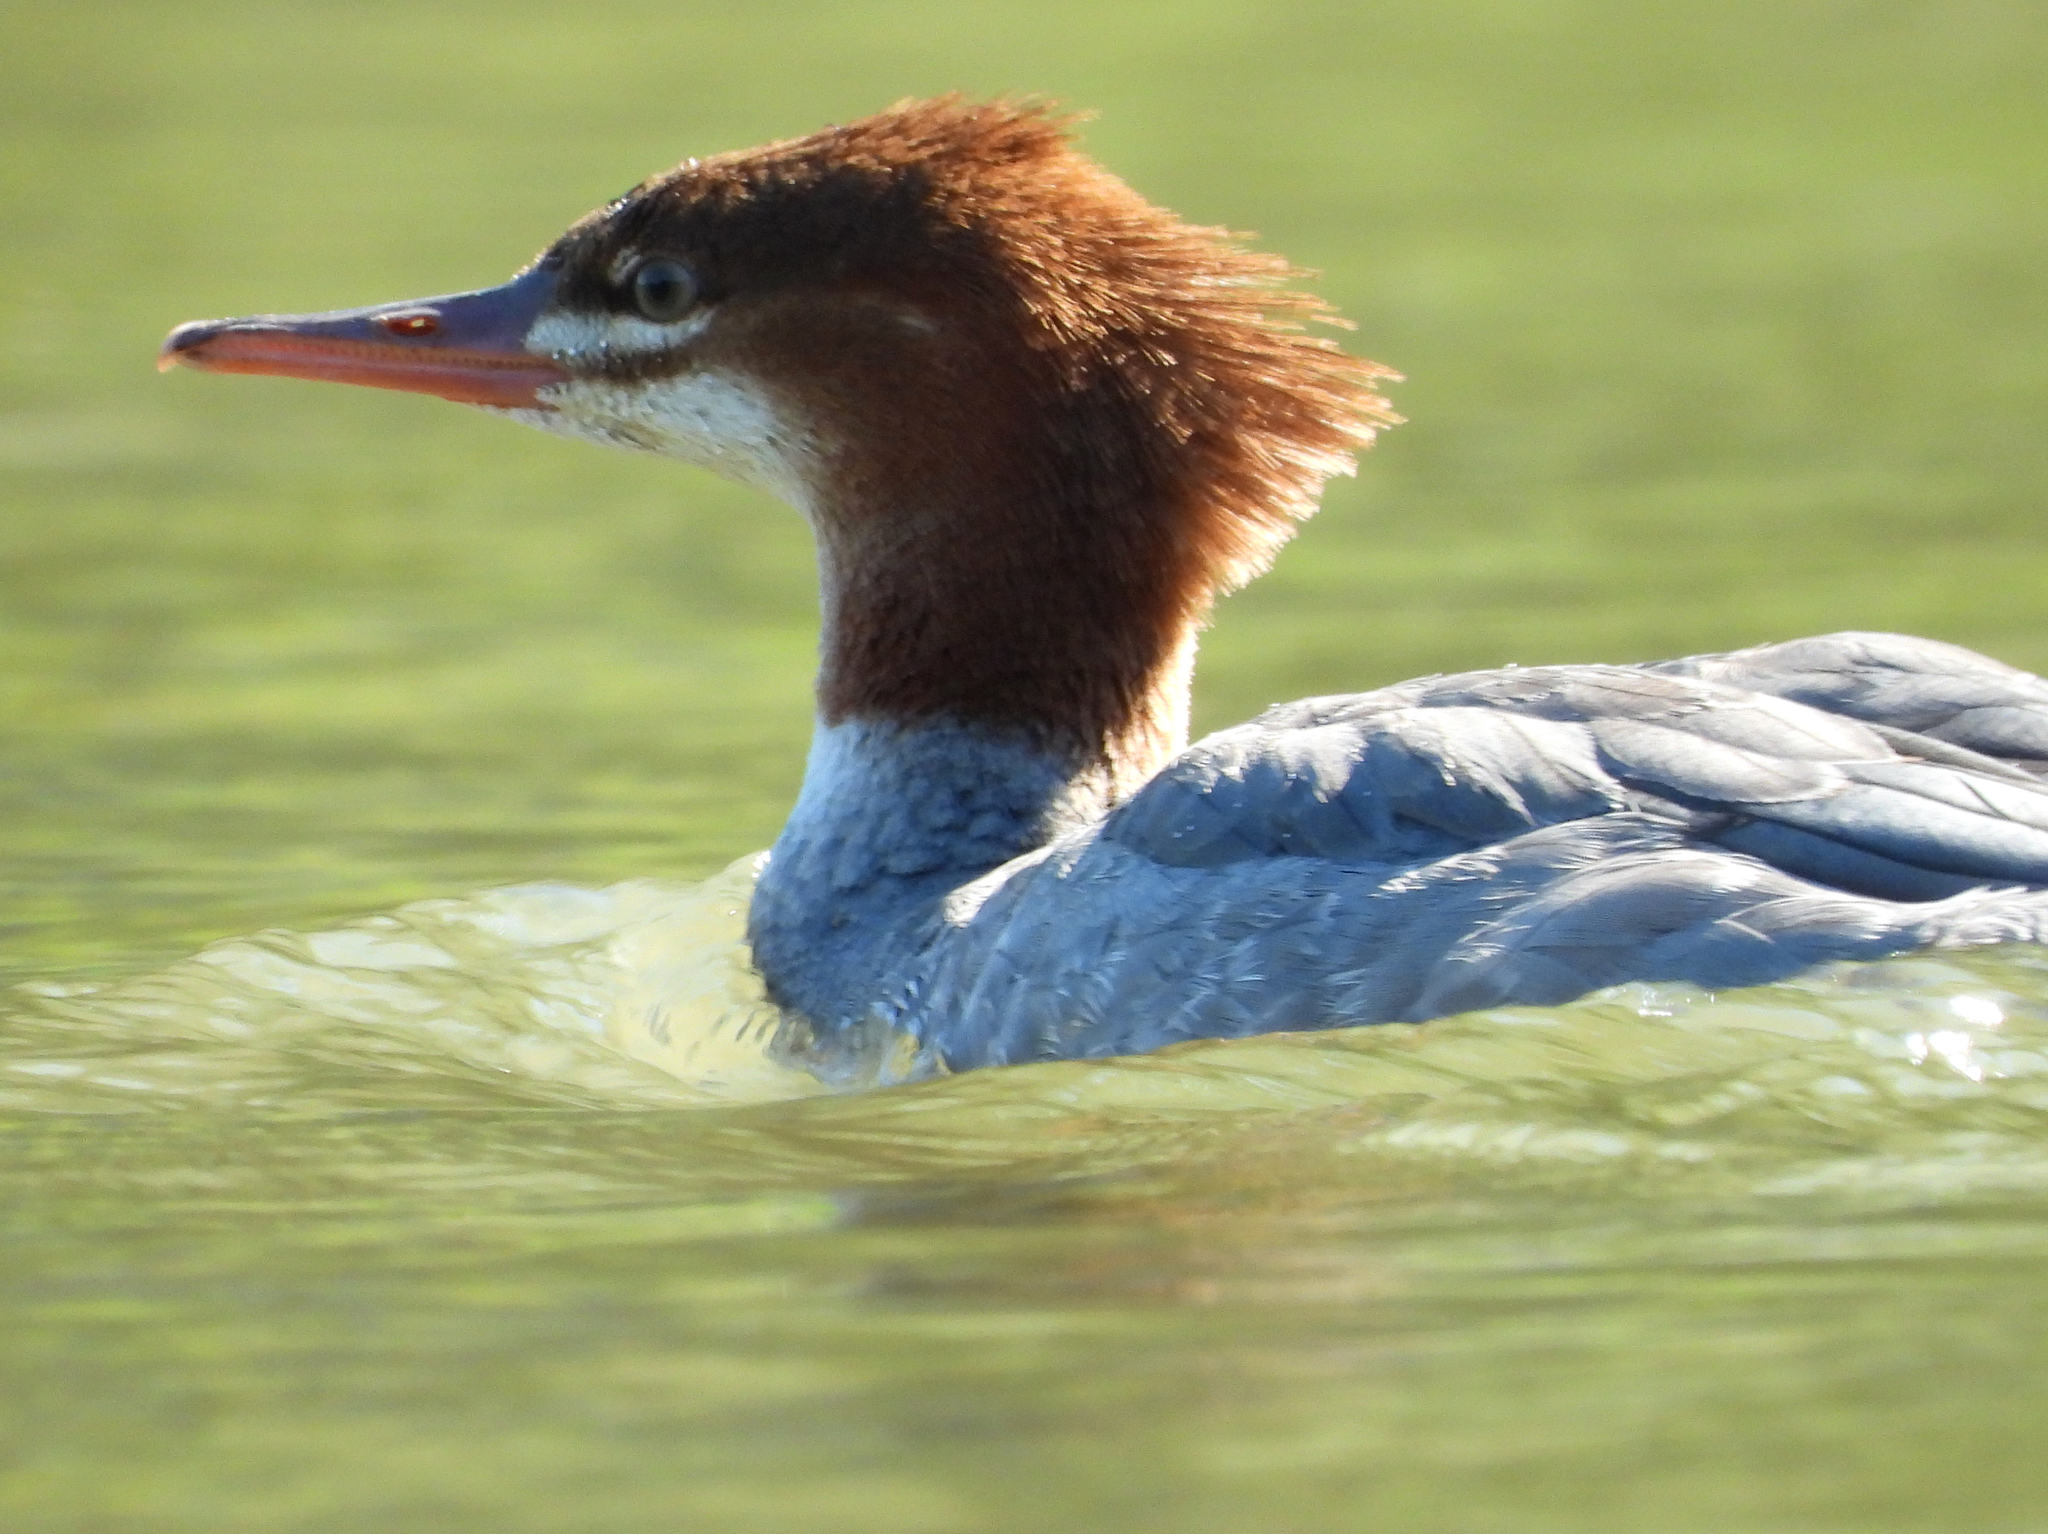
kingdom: Animalia
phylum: Chordata
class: Aves
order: Anseriformes
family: Anatidae
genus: Mergus
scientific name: Mergus merganser
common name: Common merganser
